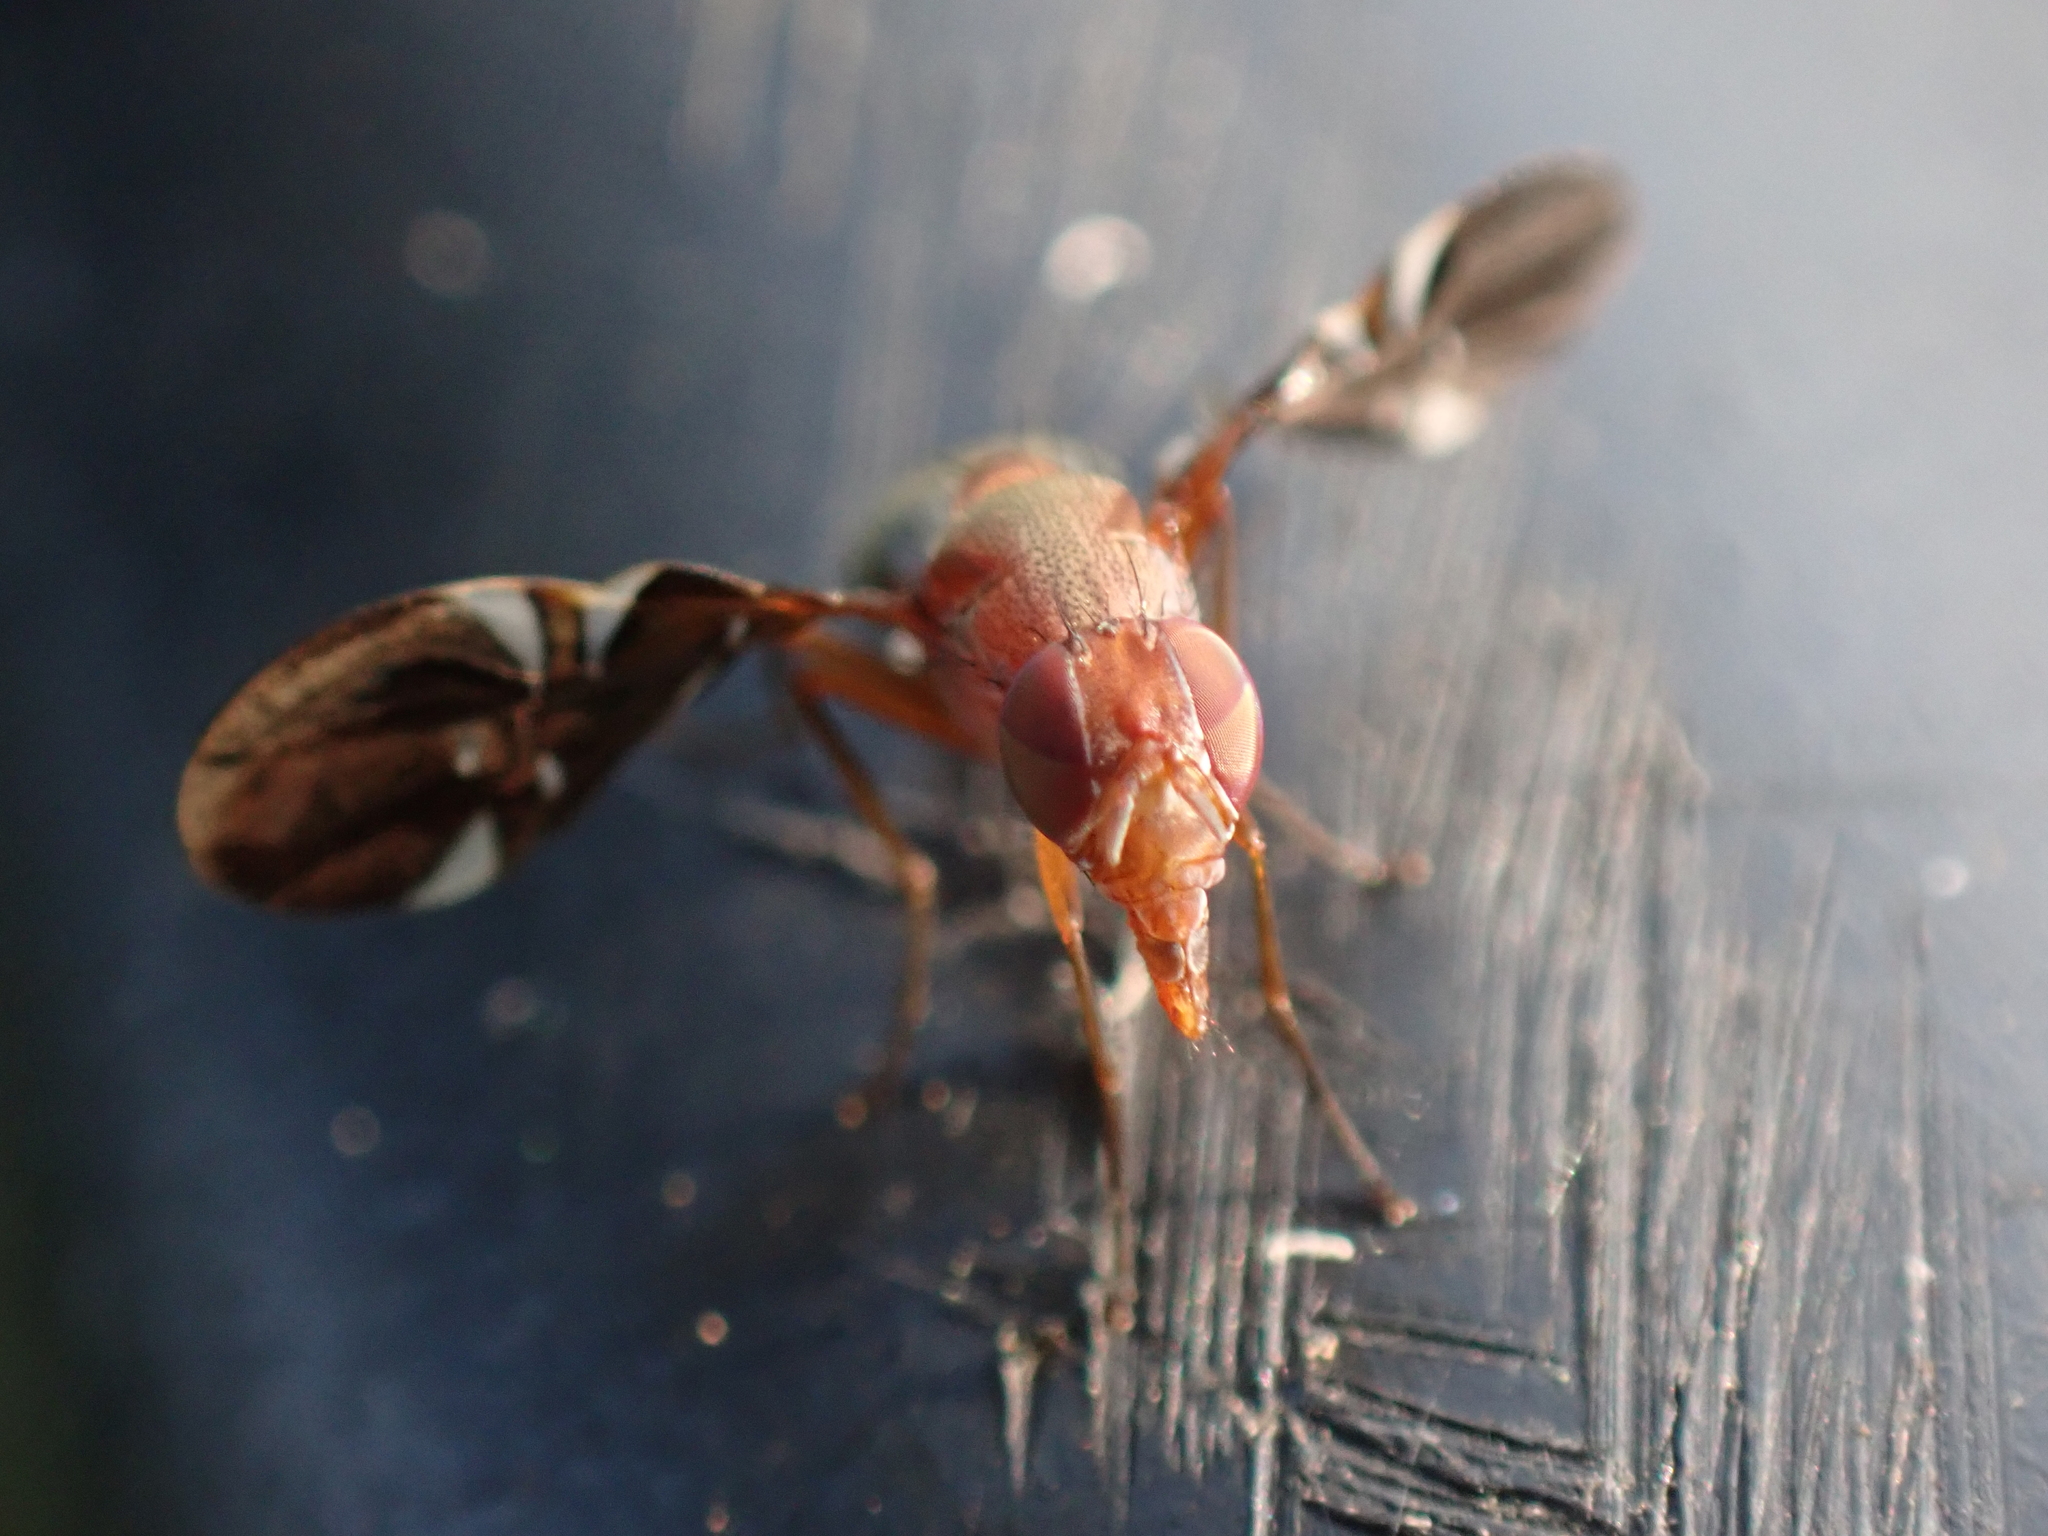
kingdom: Animalia
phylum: Arthropoda
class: Insecta
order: Diptera
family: Ulidiidae
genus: Delphinia
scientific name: Delphinia picta
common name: Common picture-winged fly
